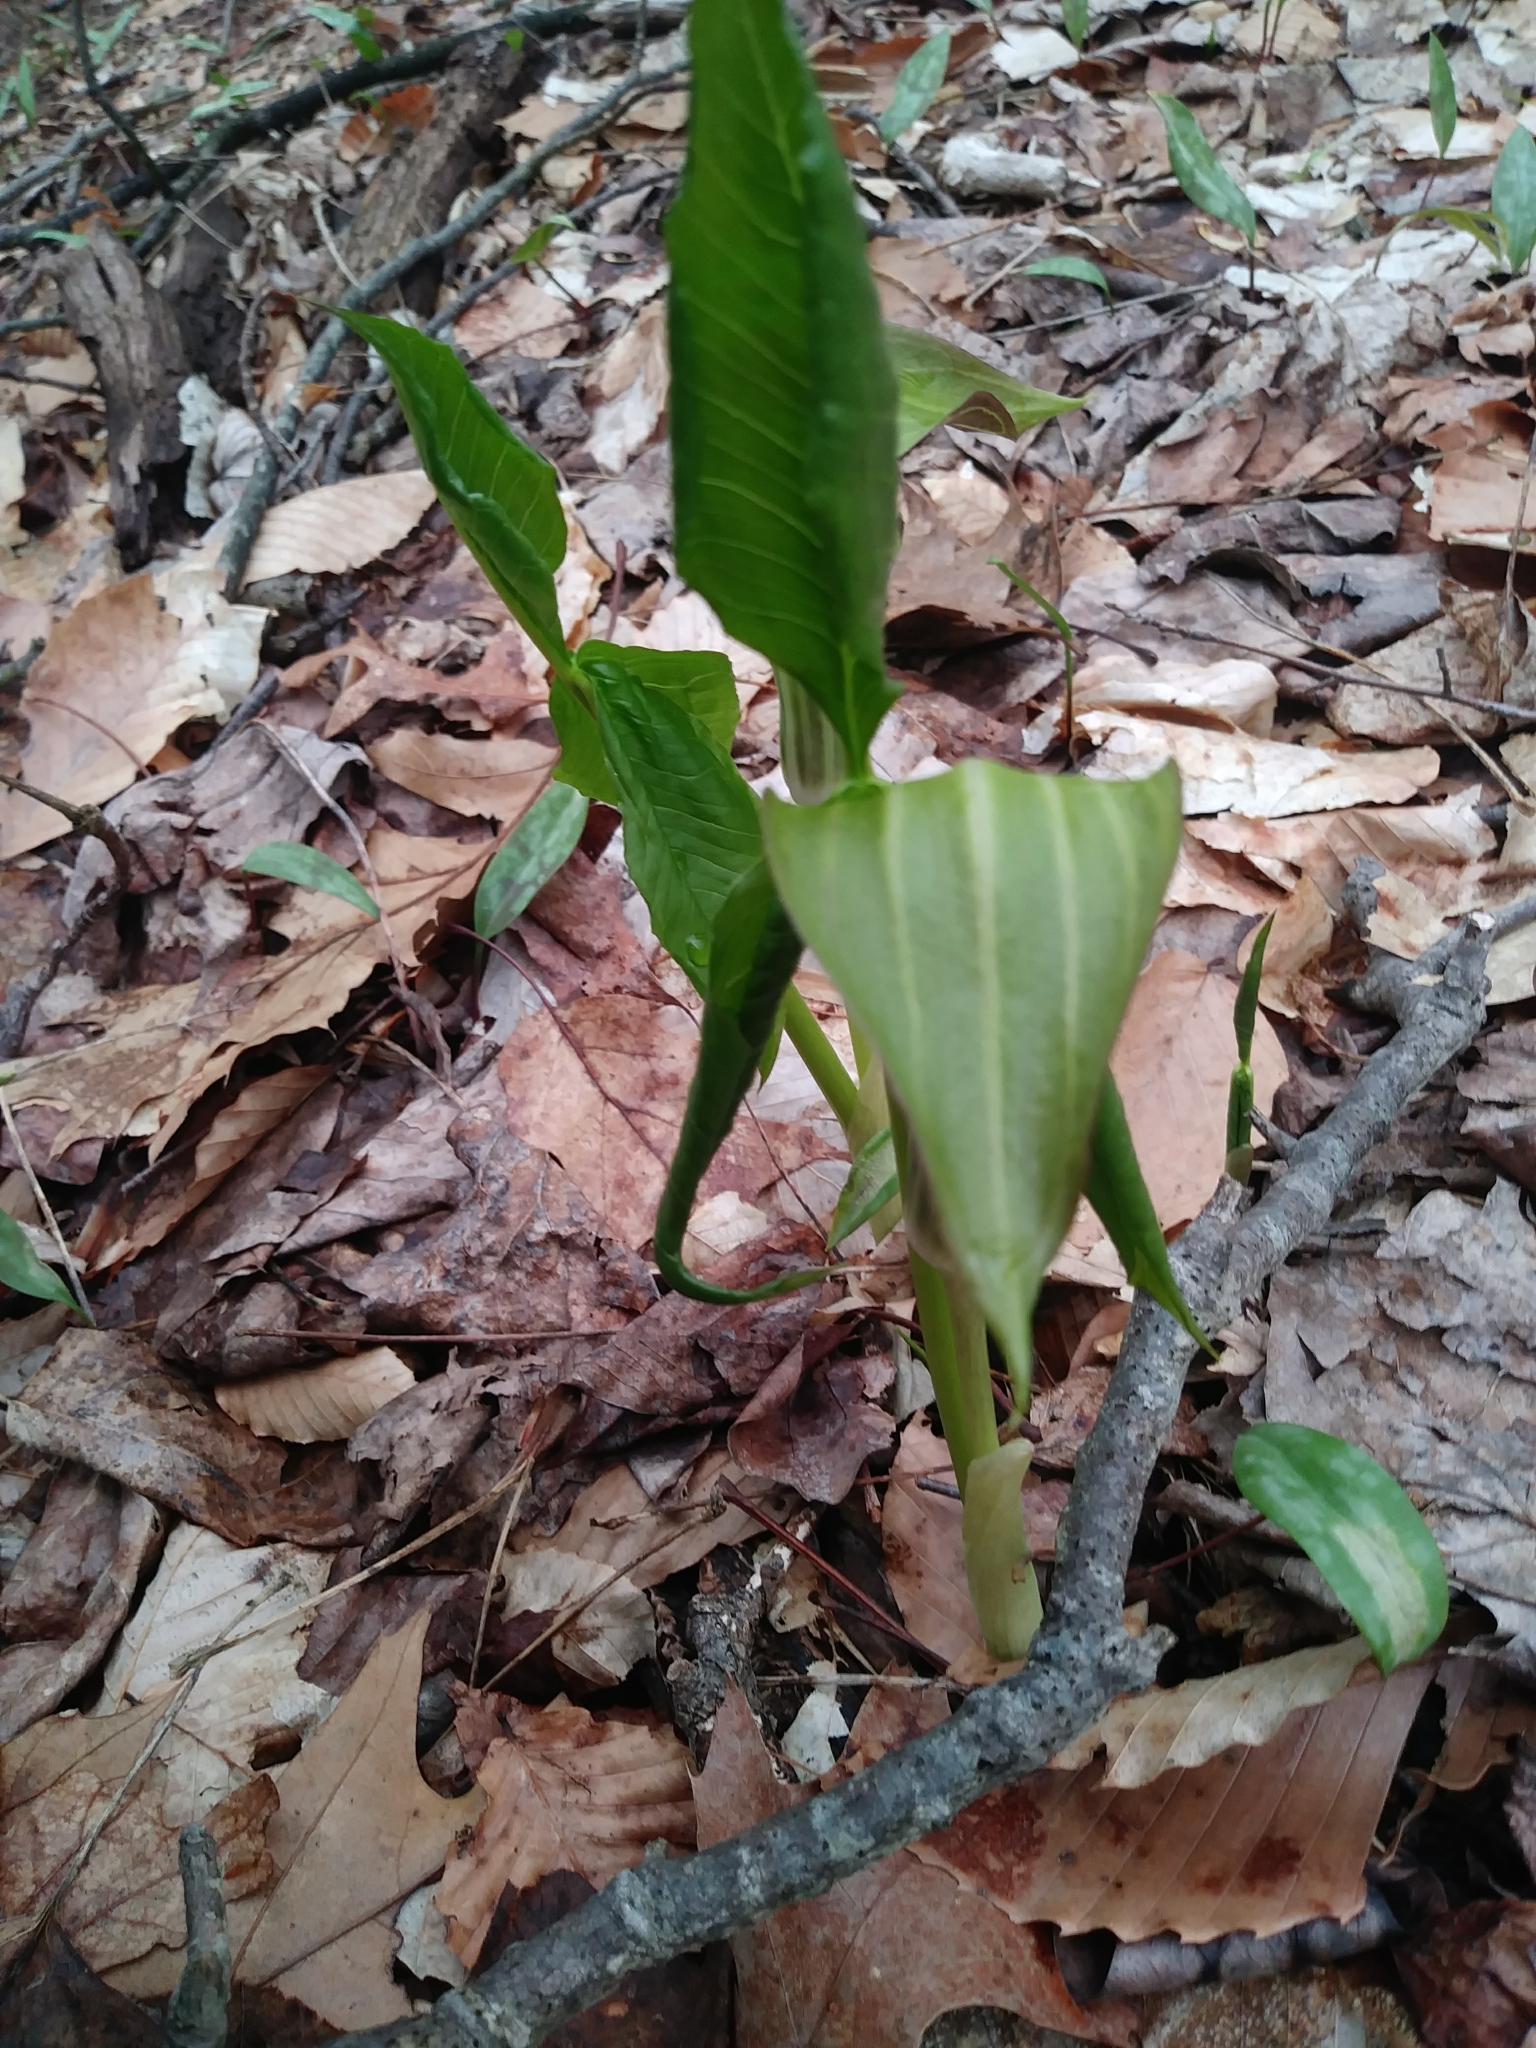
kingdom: Plantae
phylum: Tracheophyta
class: Liliopsida
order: Alismatales
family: Araceae
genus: Arisaema
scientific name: Arisaema triphyllum
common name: Jack-in-the-pulpit
